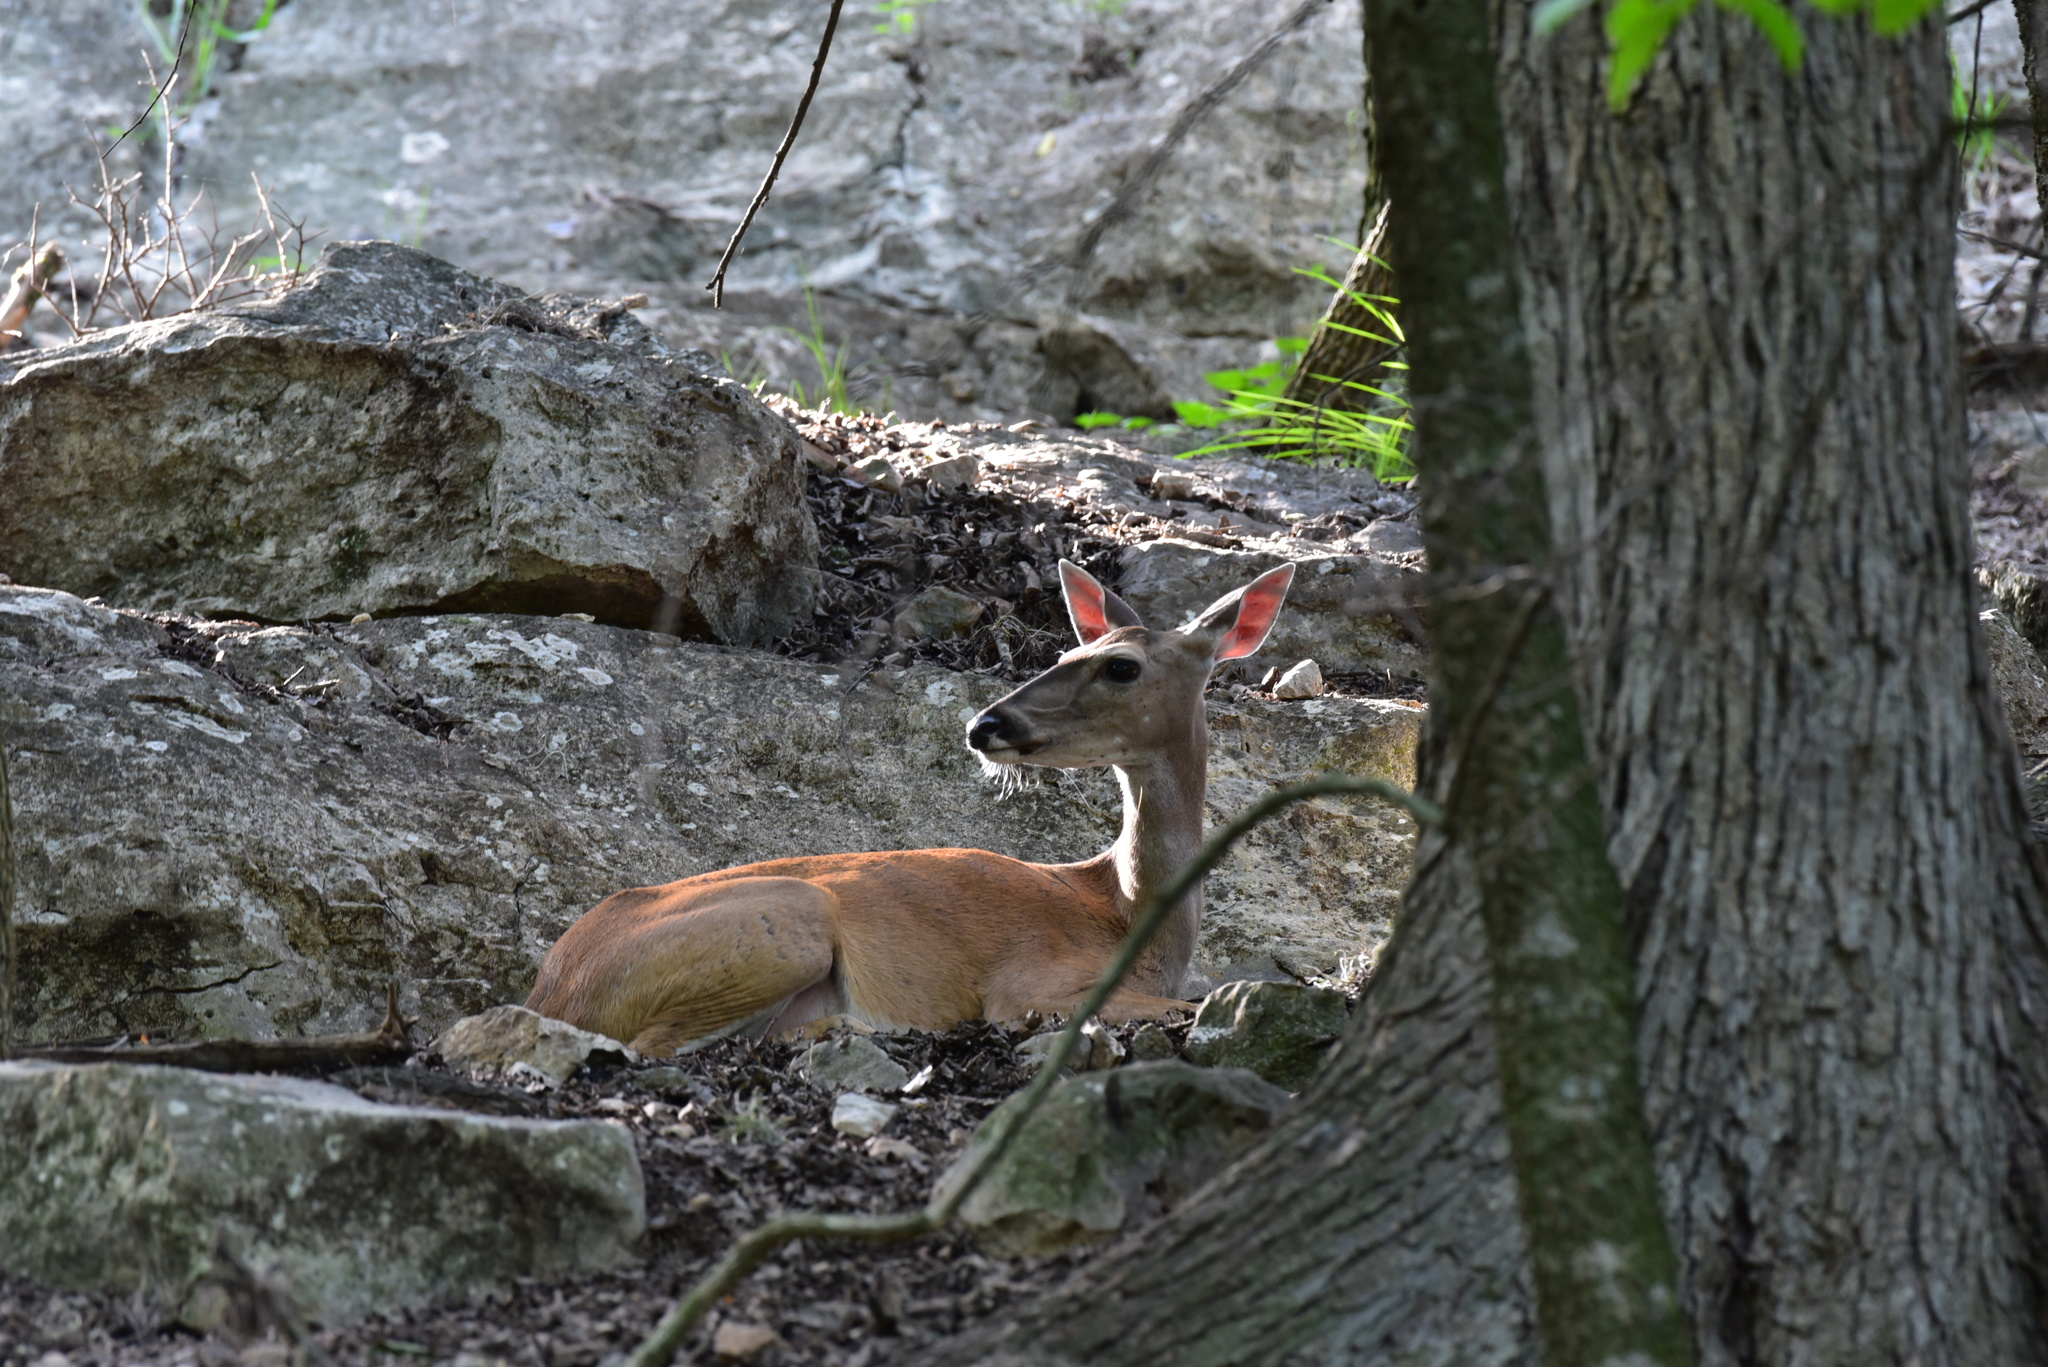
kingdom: Animalia
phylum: Chordata
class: Mammalia
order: Artiodactyla
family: Cervidae
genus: Odocoileus
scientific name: Odocoileus virginianus
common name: White-tailed deer
